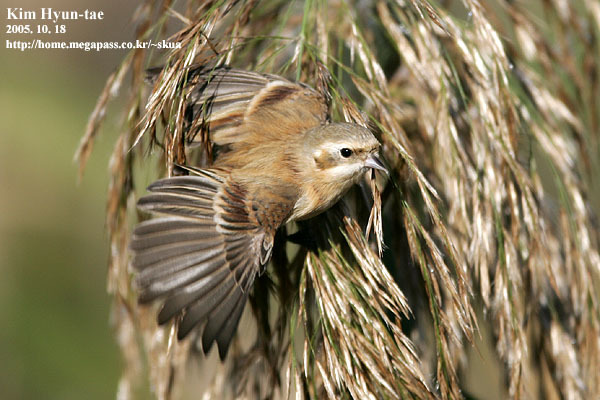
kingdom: Animalia
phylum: Chordata
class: Aves
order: Passeriformes
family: Remizidae
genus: Remiz
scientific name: Remiz consobrinus
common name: Chinese penduline tit
